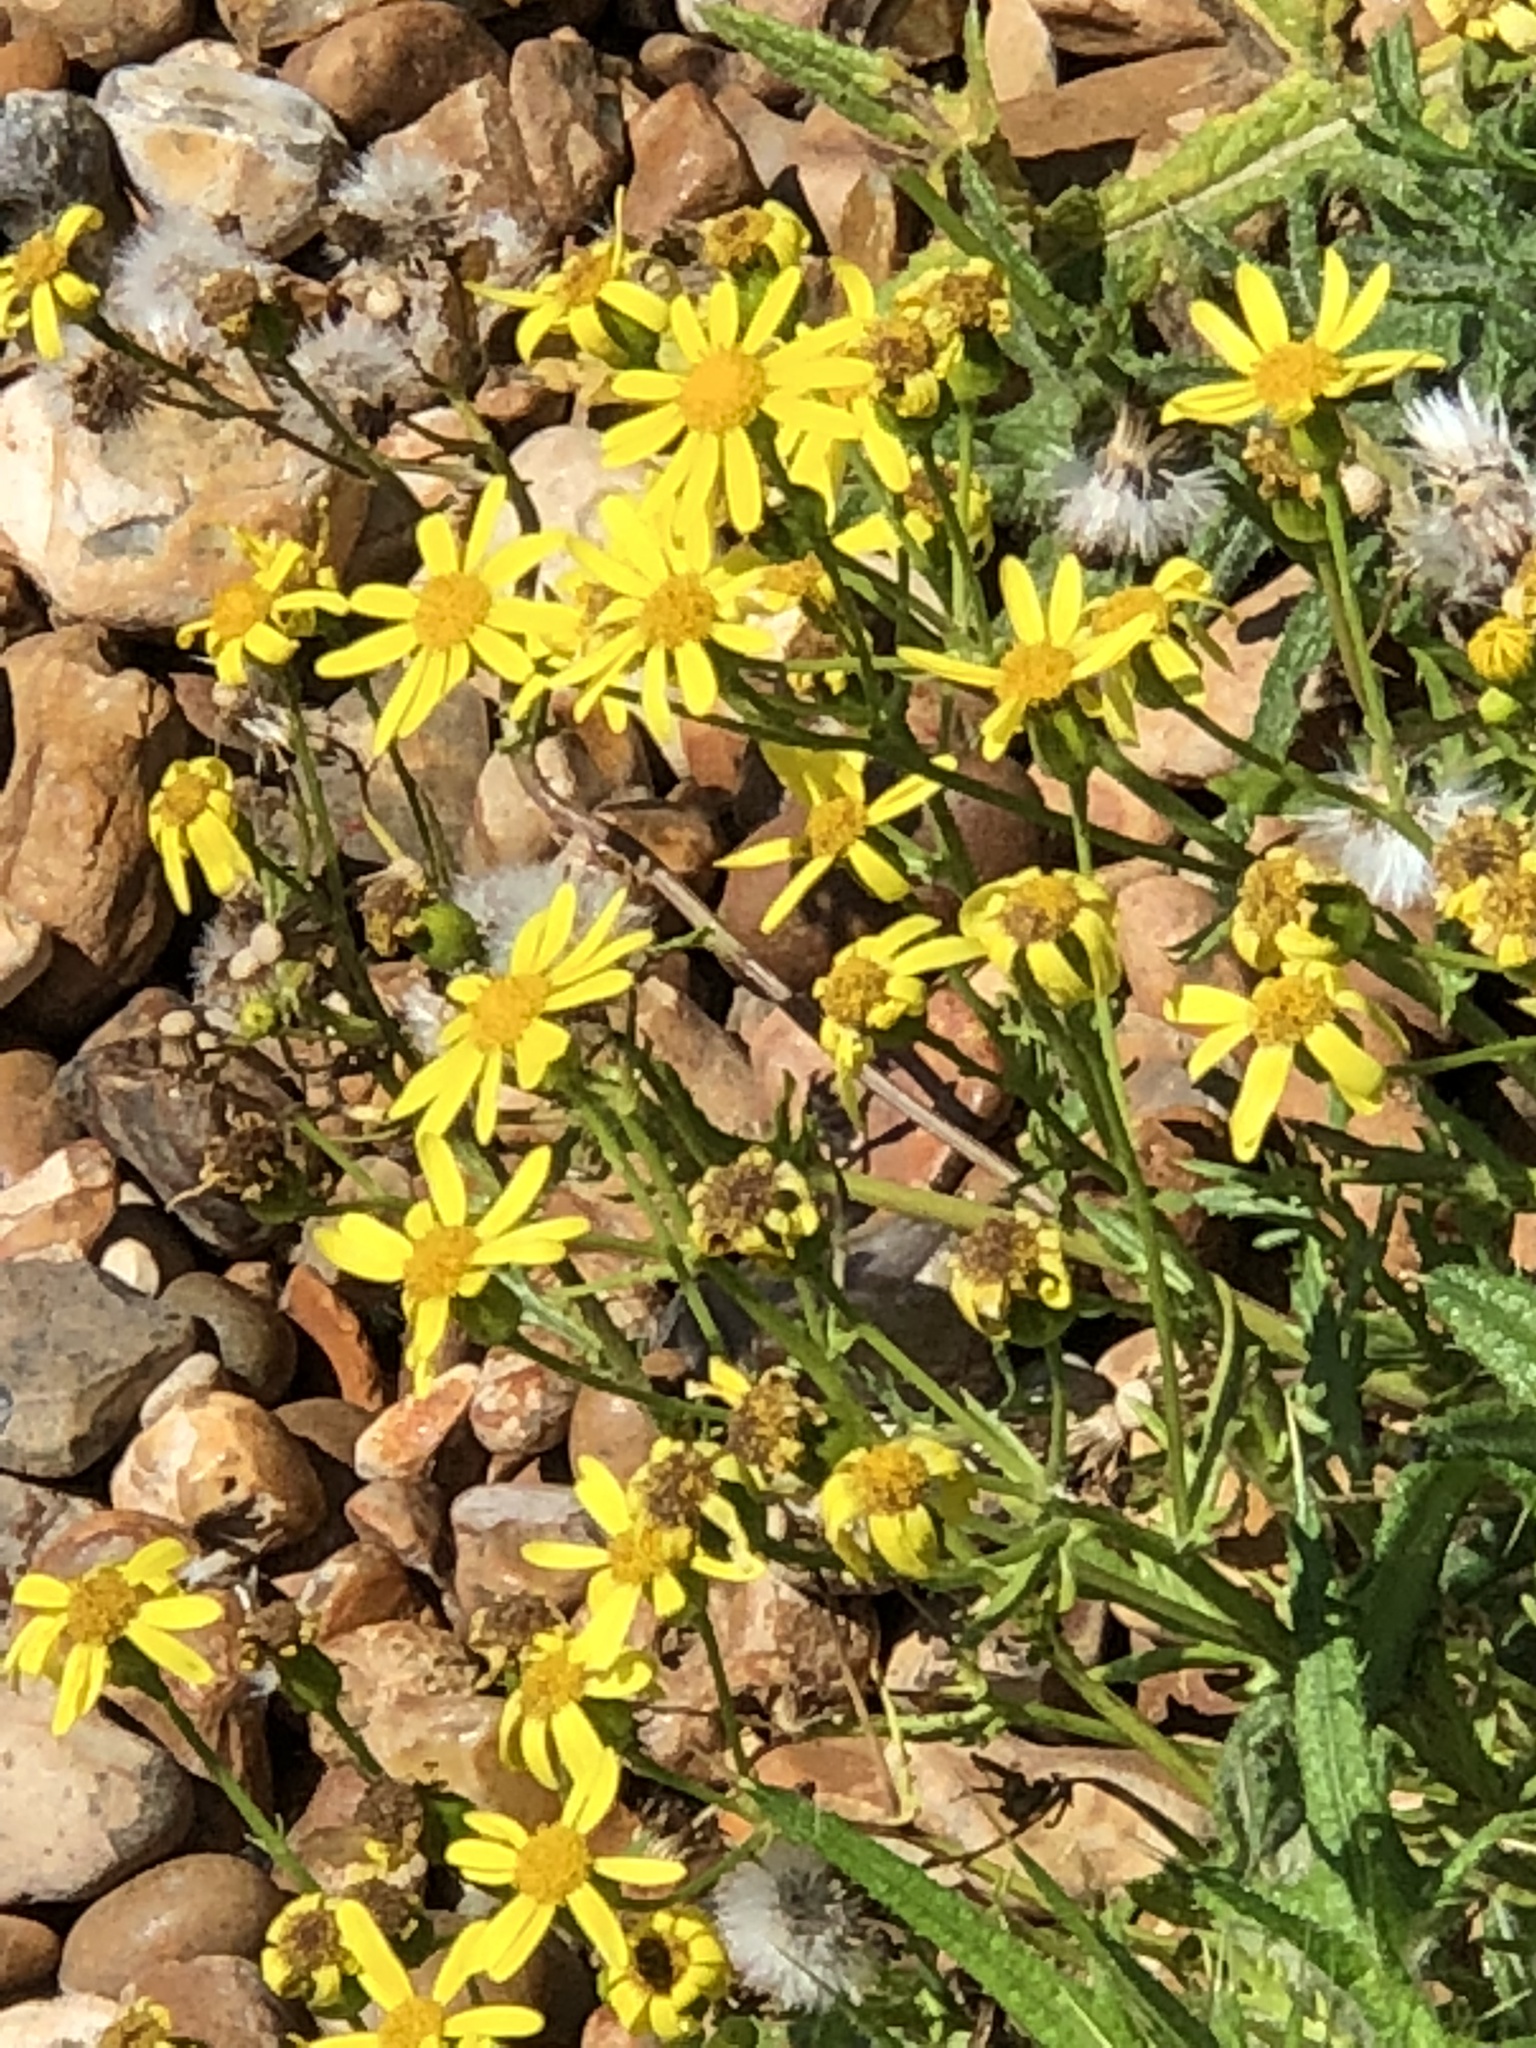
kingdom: Plantae
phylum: Tracheophyta
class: Magnoliopsida
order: Asterales
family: Asteraceae
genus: Senecio
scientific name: Senecio squalidus
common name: Oxford ragwort
